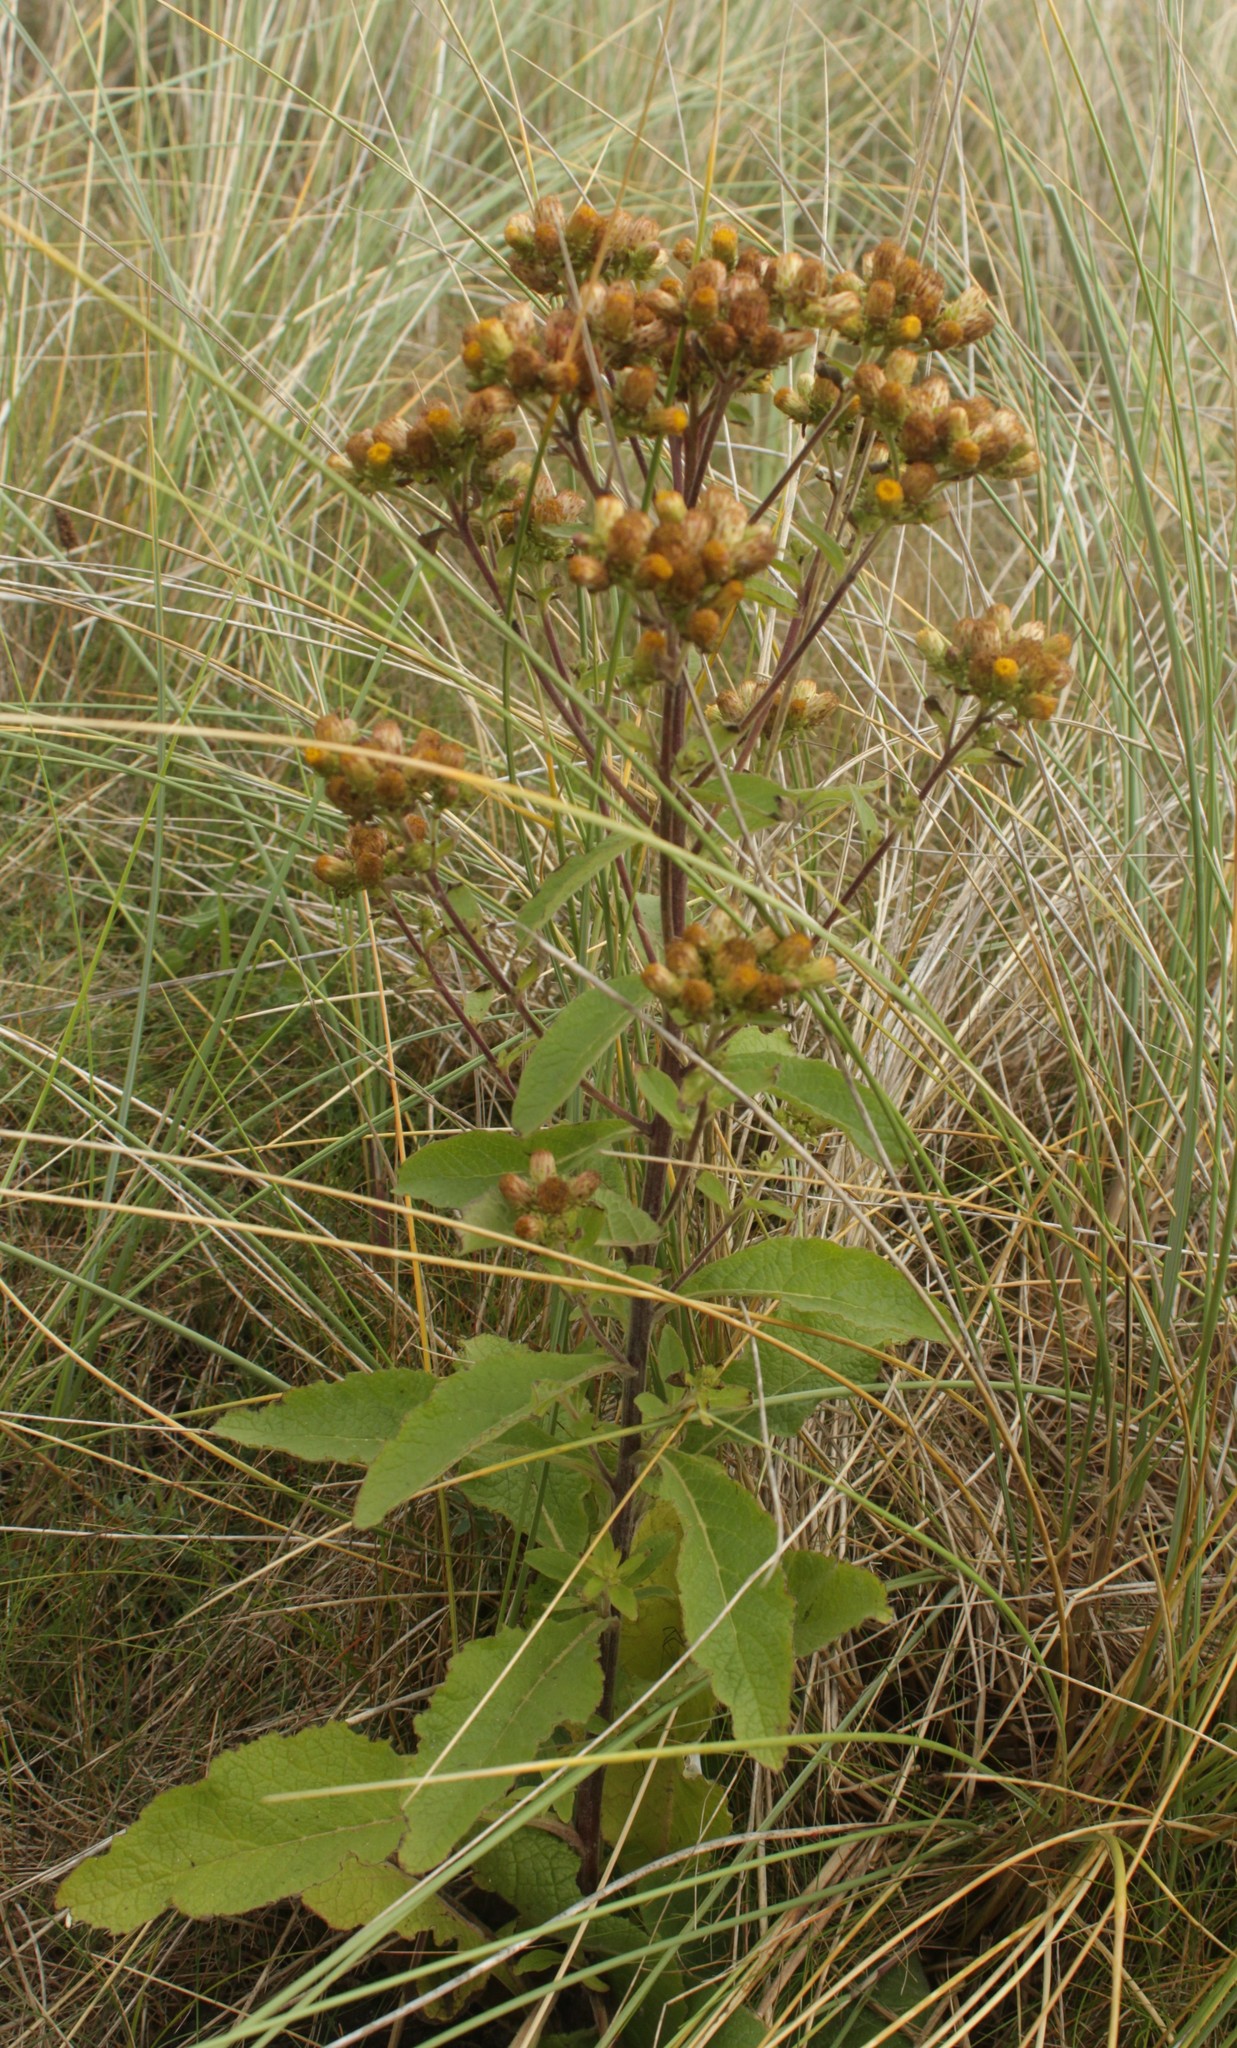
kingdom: Plantae
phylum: Tracheophyta
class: Magnoliopsida
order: Asterales
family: Asteraceae
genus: Pentanema
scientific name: Pentanema squarrosum
